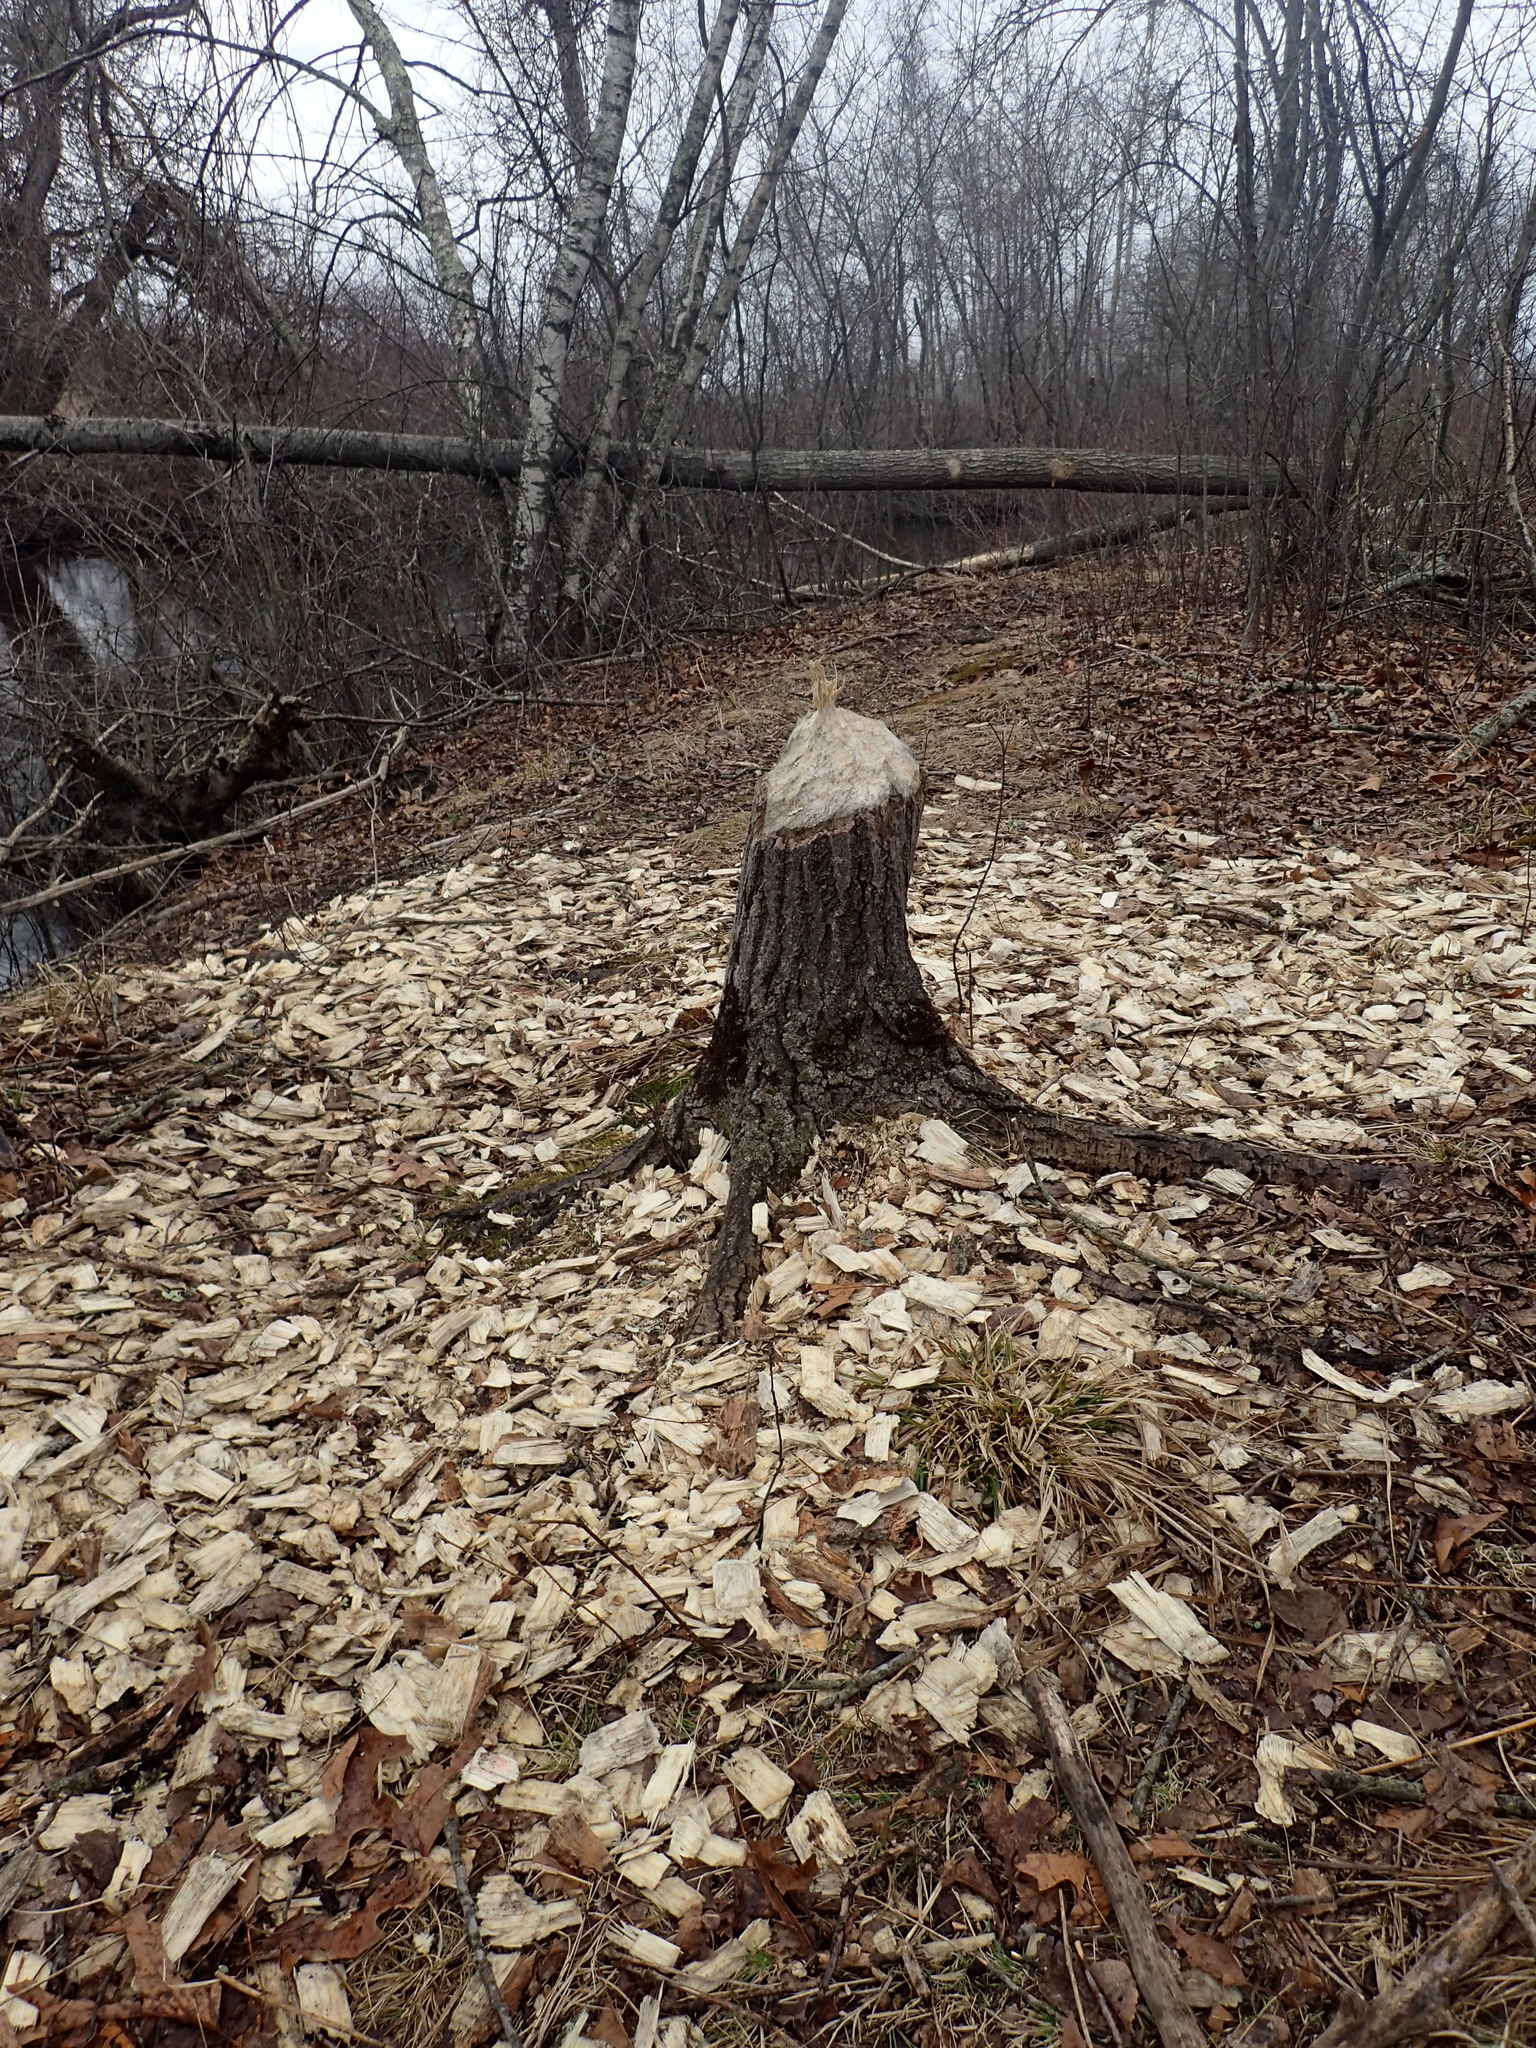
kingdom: Animalia
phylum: Chordata
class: Mammalia
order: Rodentia
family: Castoridae
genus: Castor
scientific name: Castor canadensis
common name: American beaver
